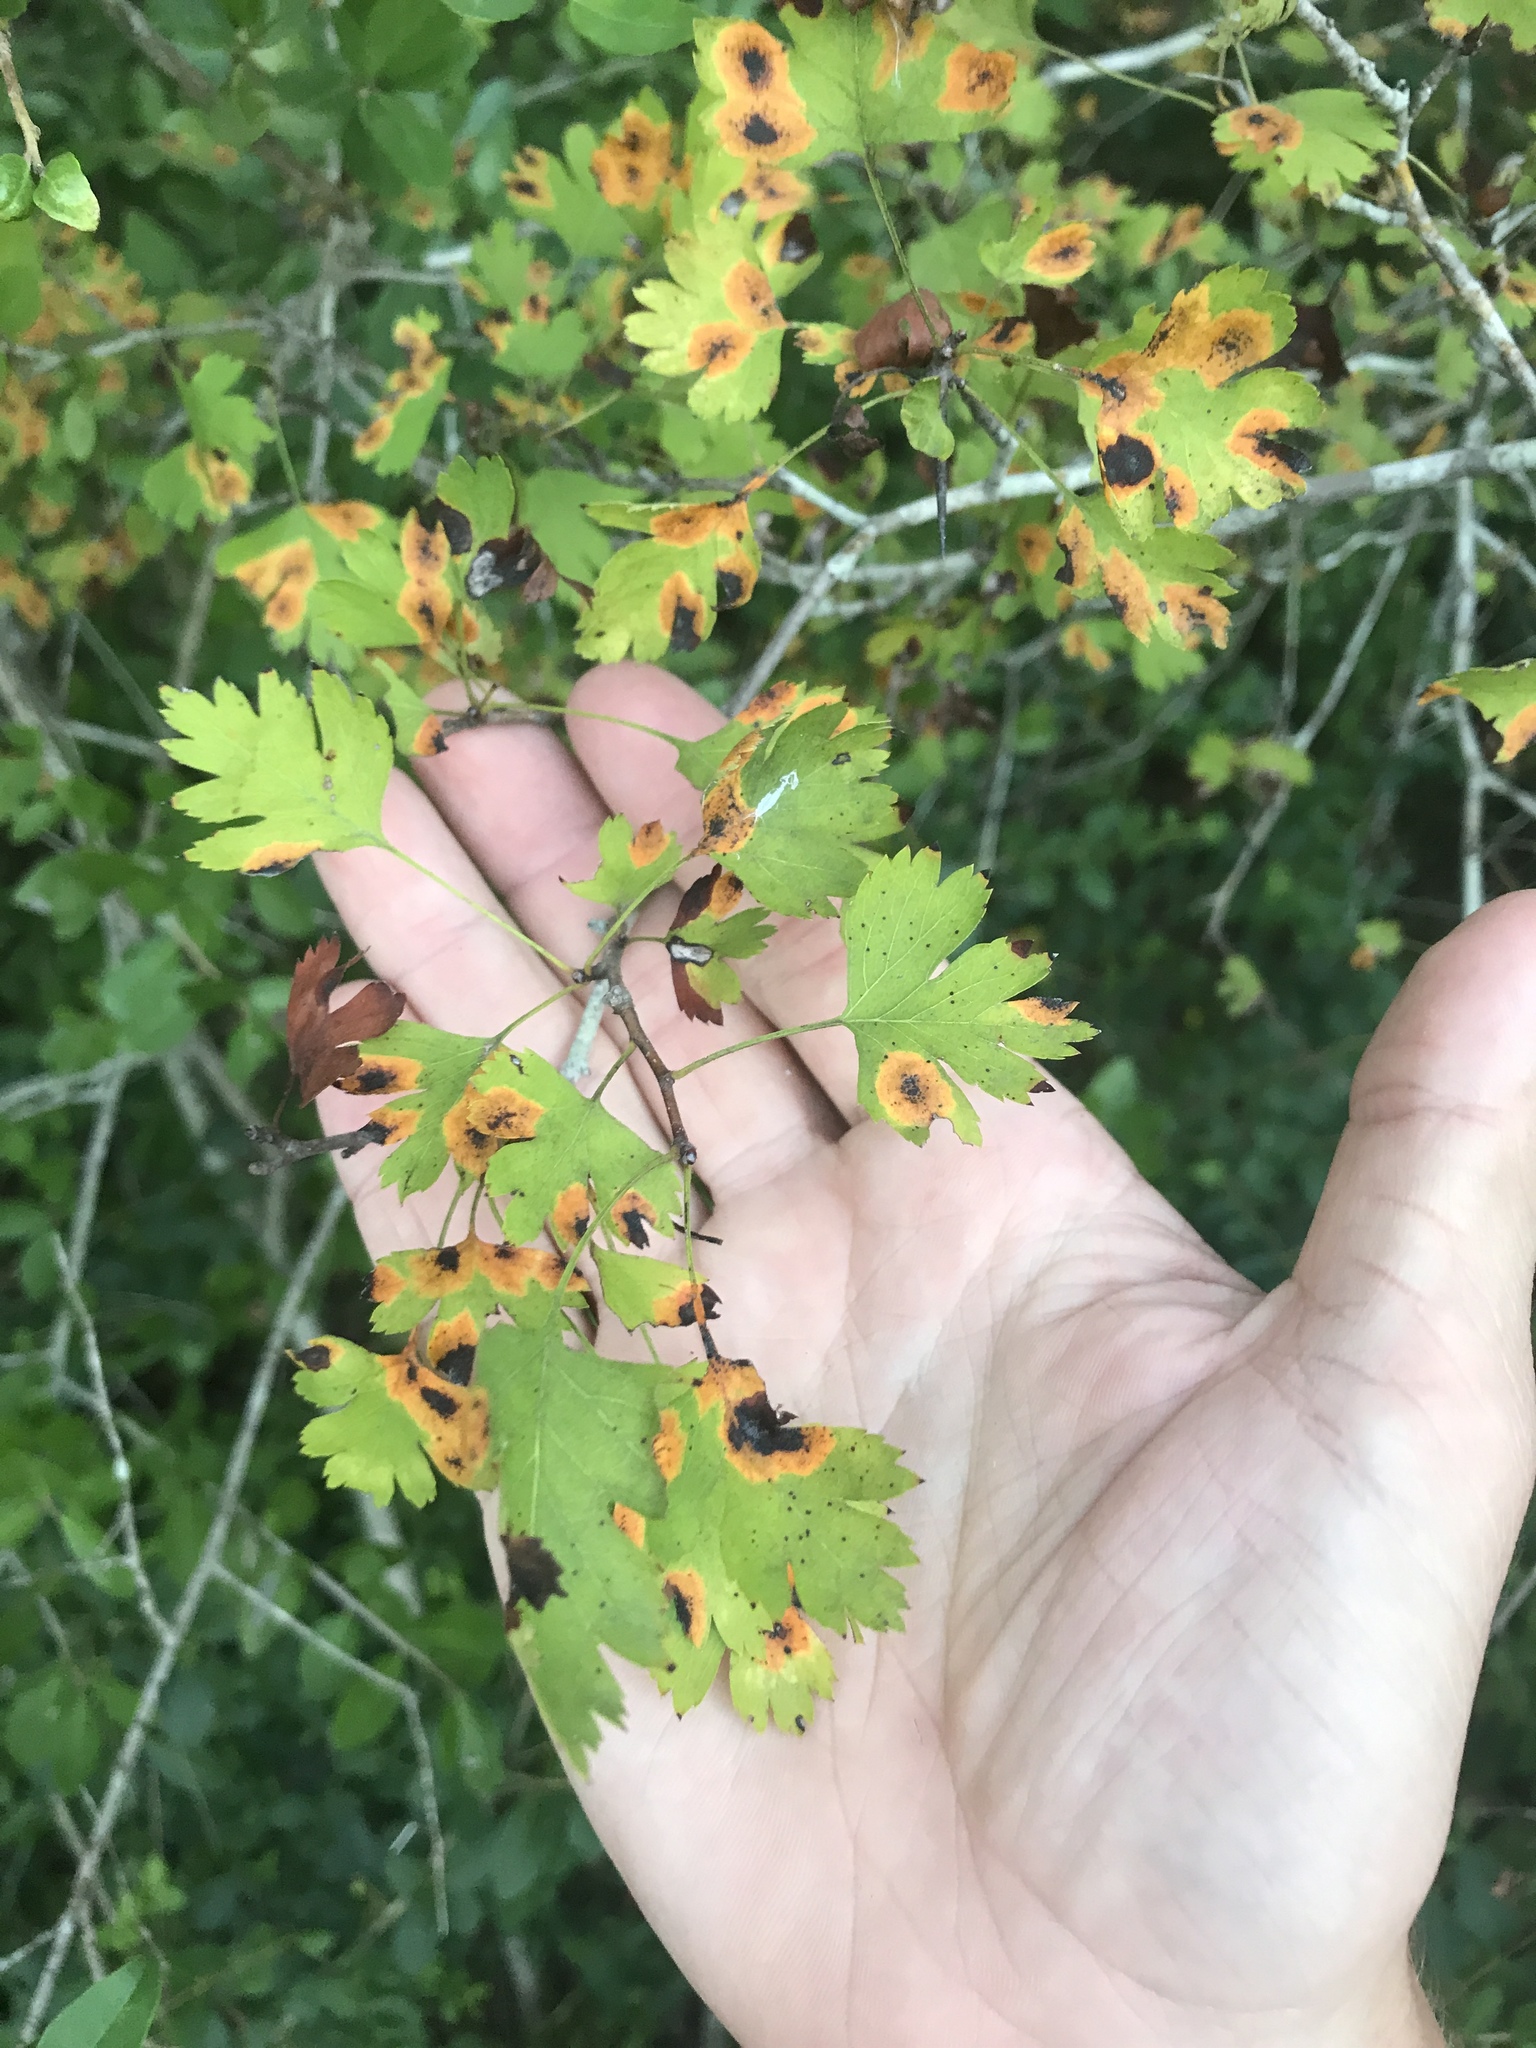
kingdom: Plantae
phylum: Tracheophyta
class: Magnoliopsida
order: Rosales
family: Rosaceae
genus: Crataegus
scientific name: Crataegus marshallii
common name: Parsley-hawthorn
